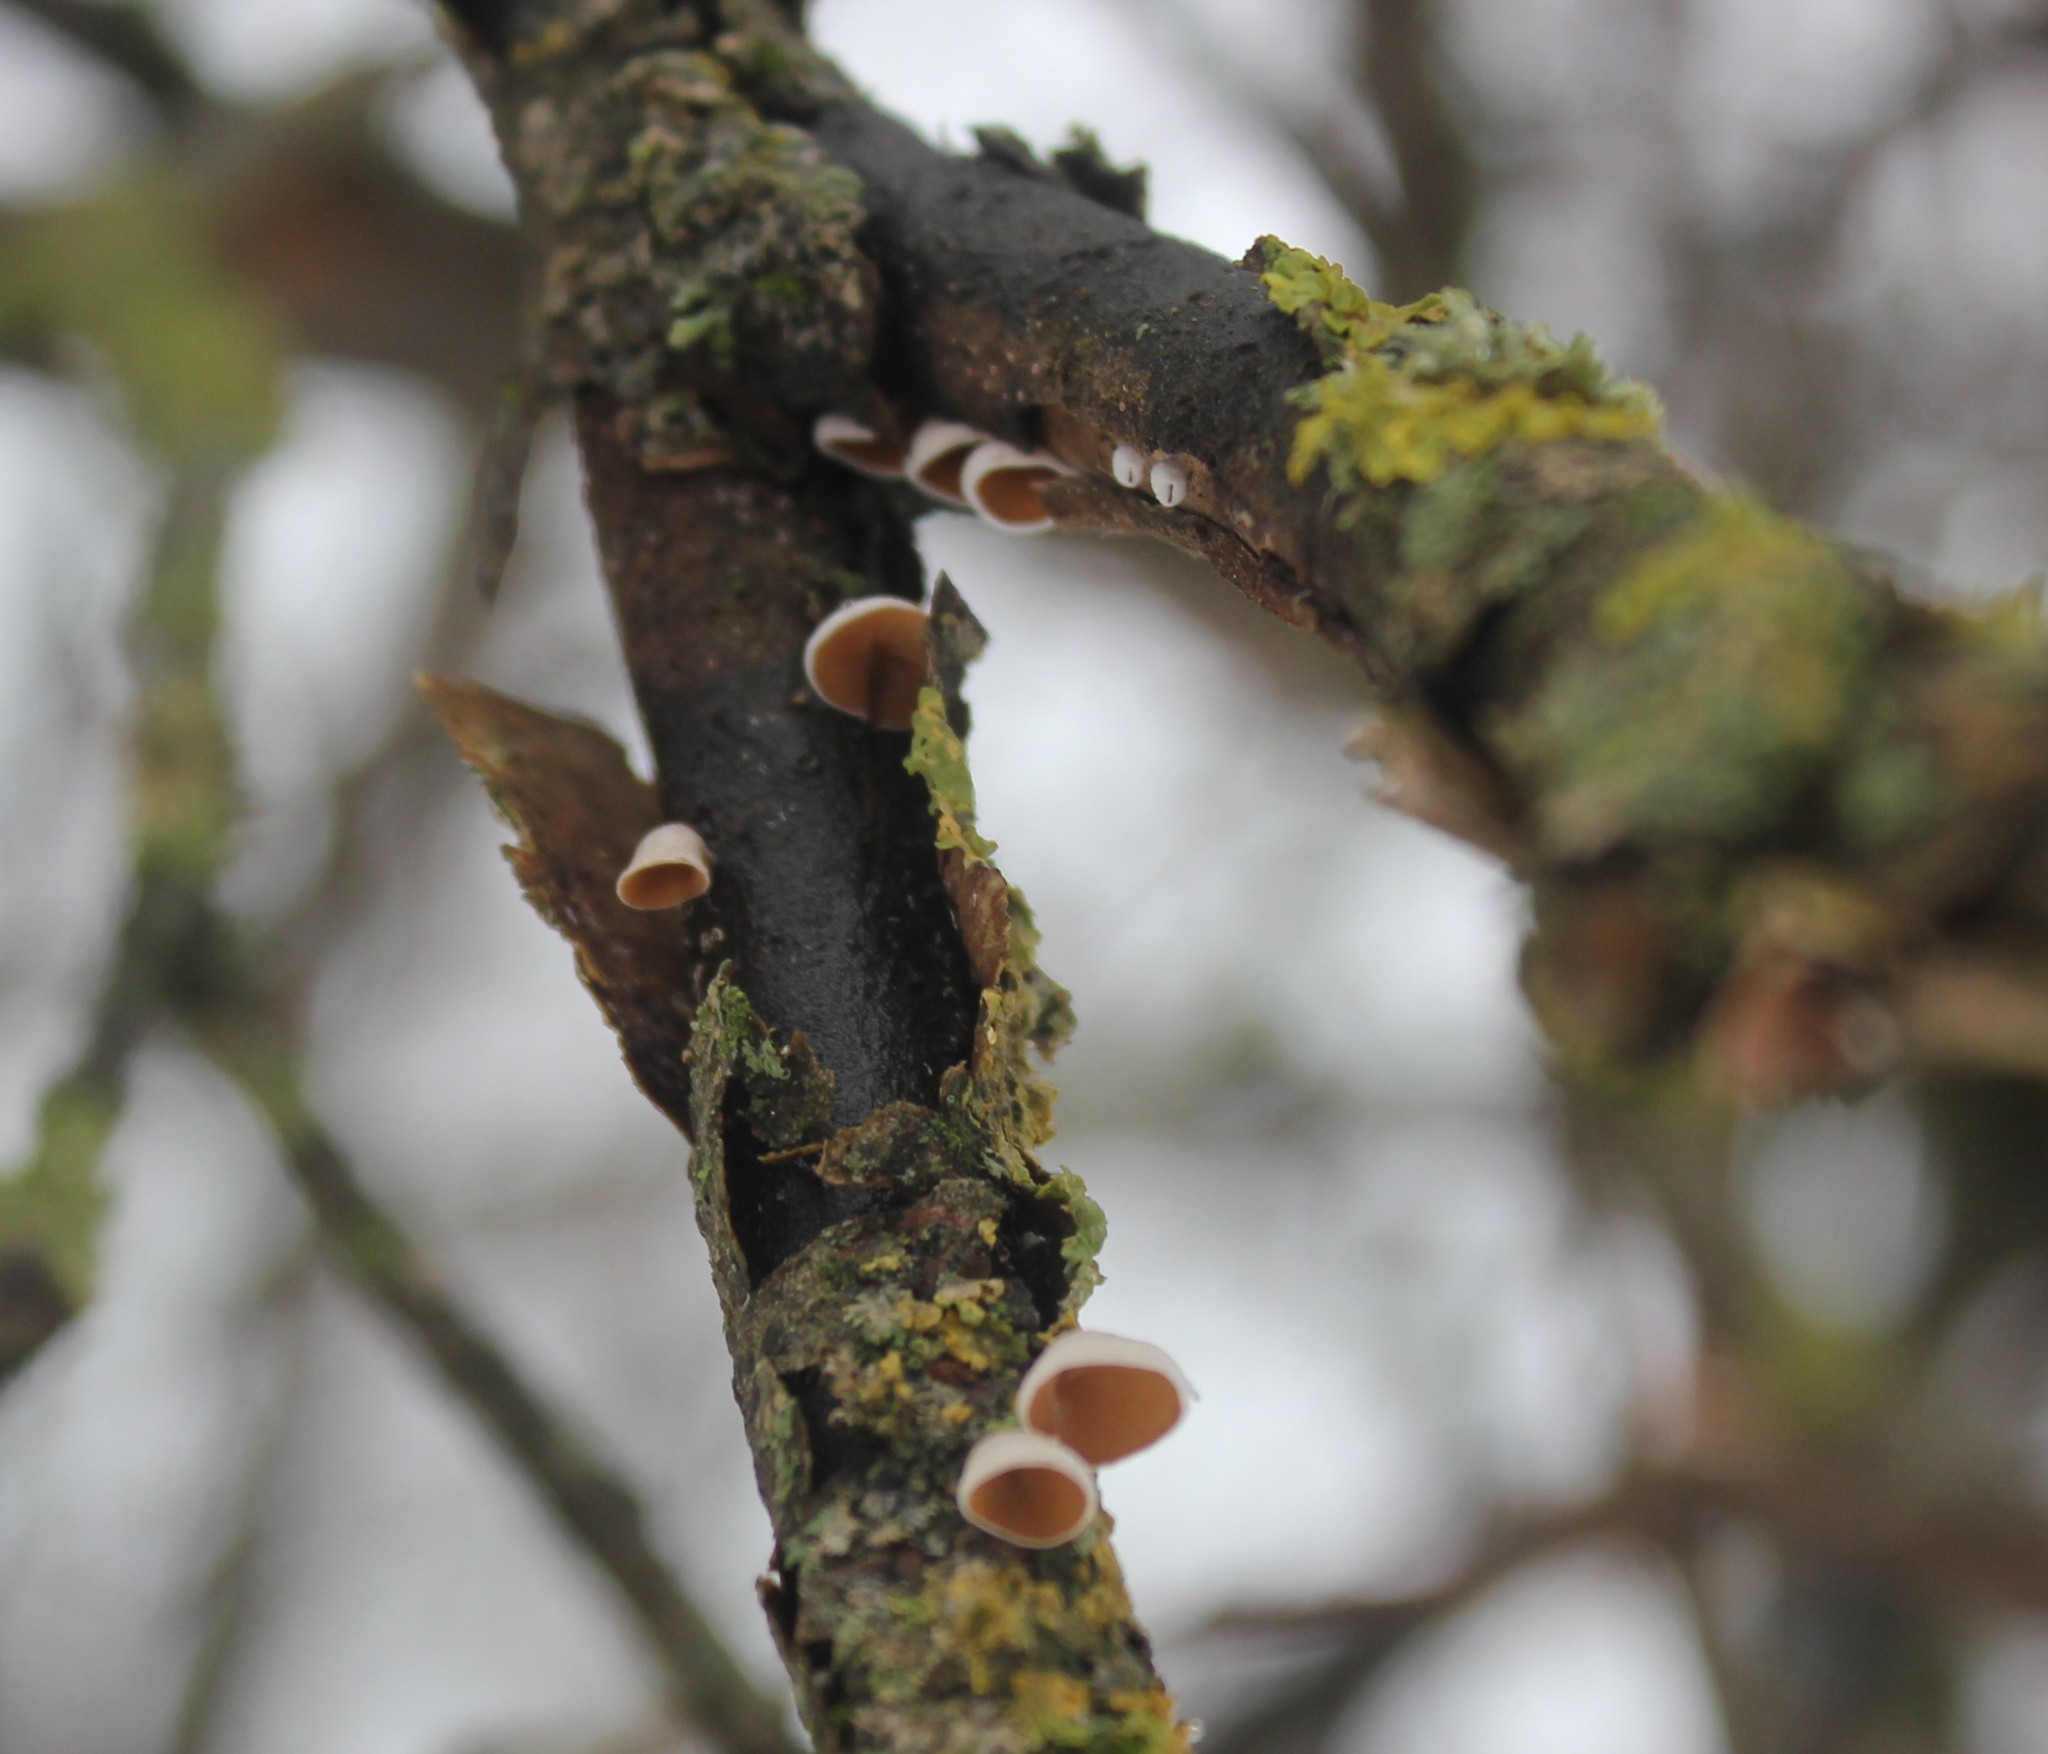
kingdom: Fungi
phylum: Basidiomycota
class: Agaricomycetes
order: Agaricales
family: Schizophyllaceae
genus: Schizophyllum
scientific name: Schizophyllum amplum
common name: Poplar bells
